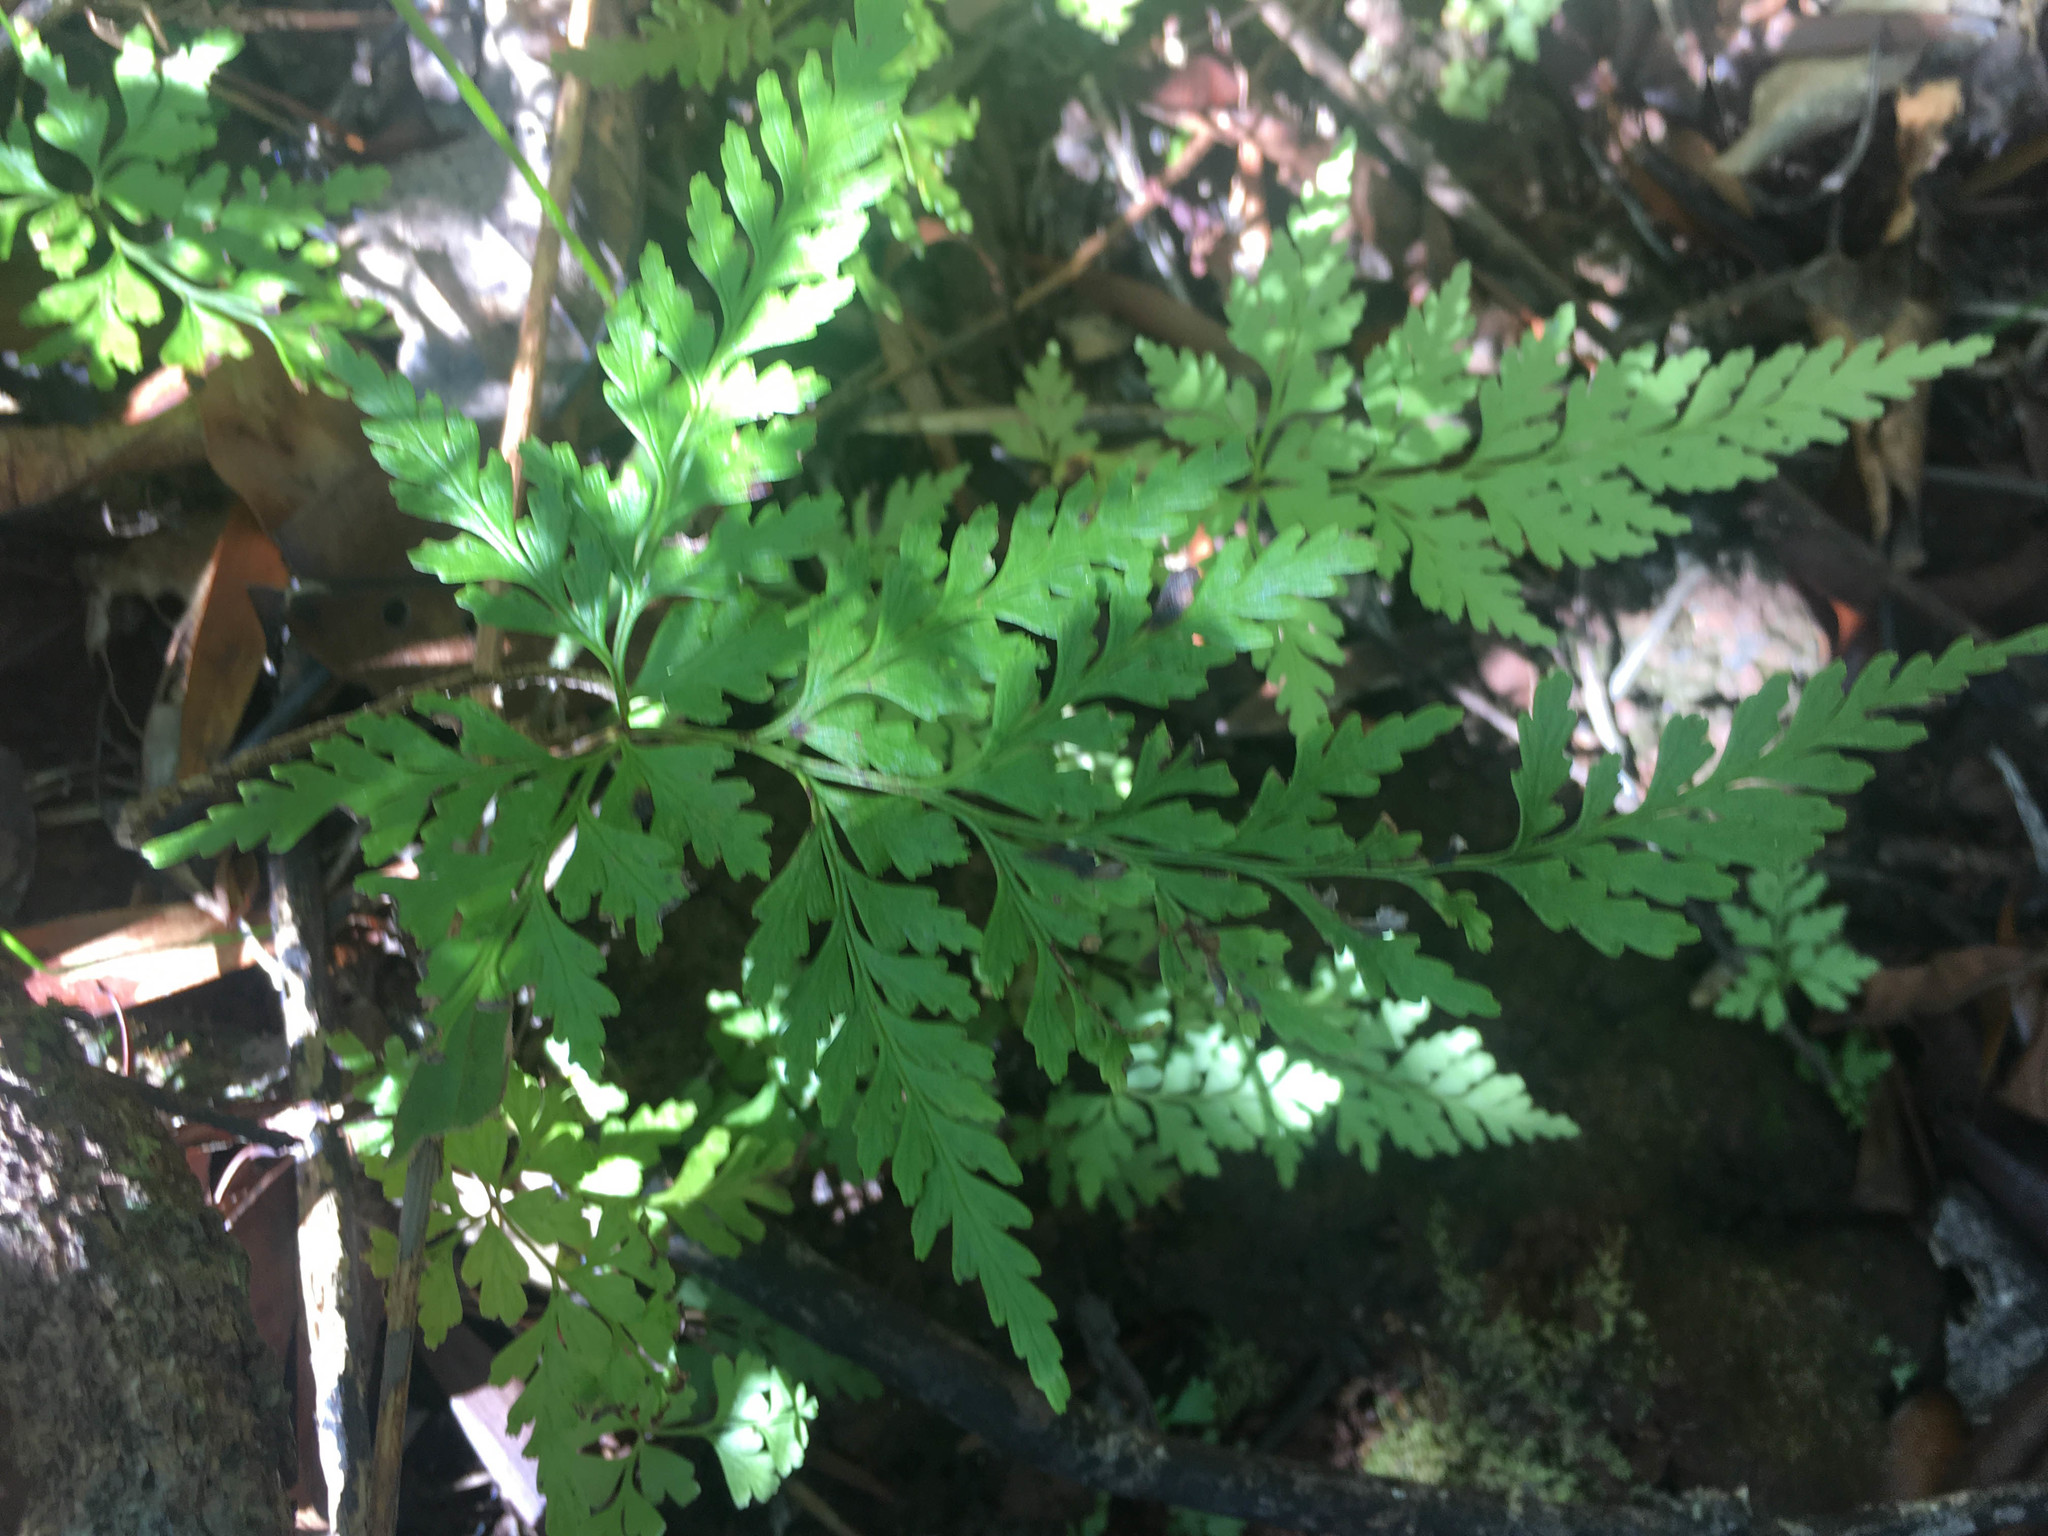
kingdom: Plantae
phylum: Tracheophyta
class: Polypodiopsida
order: Polypodiales
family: Lindsaeaceae
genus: Tapeinidium
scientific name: Tapeinidium moorei
